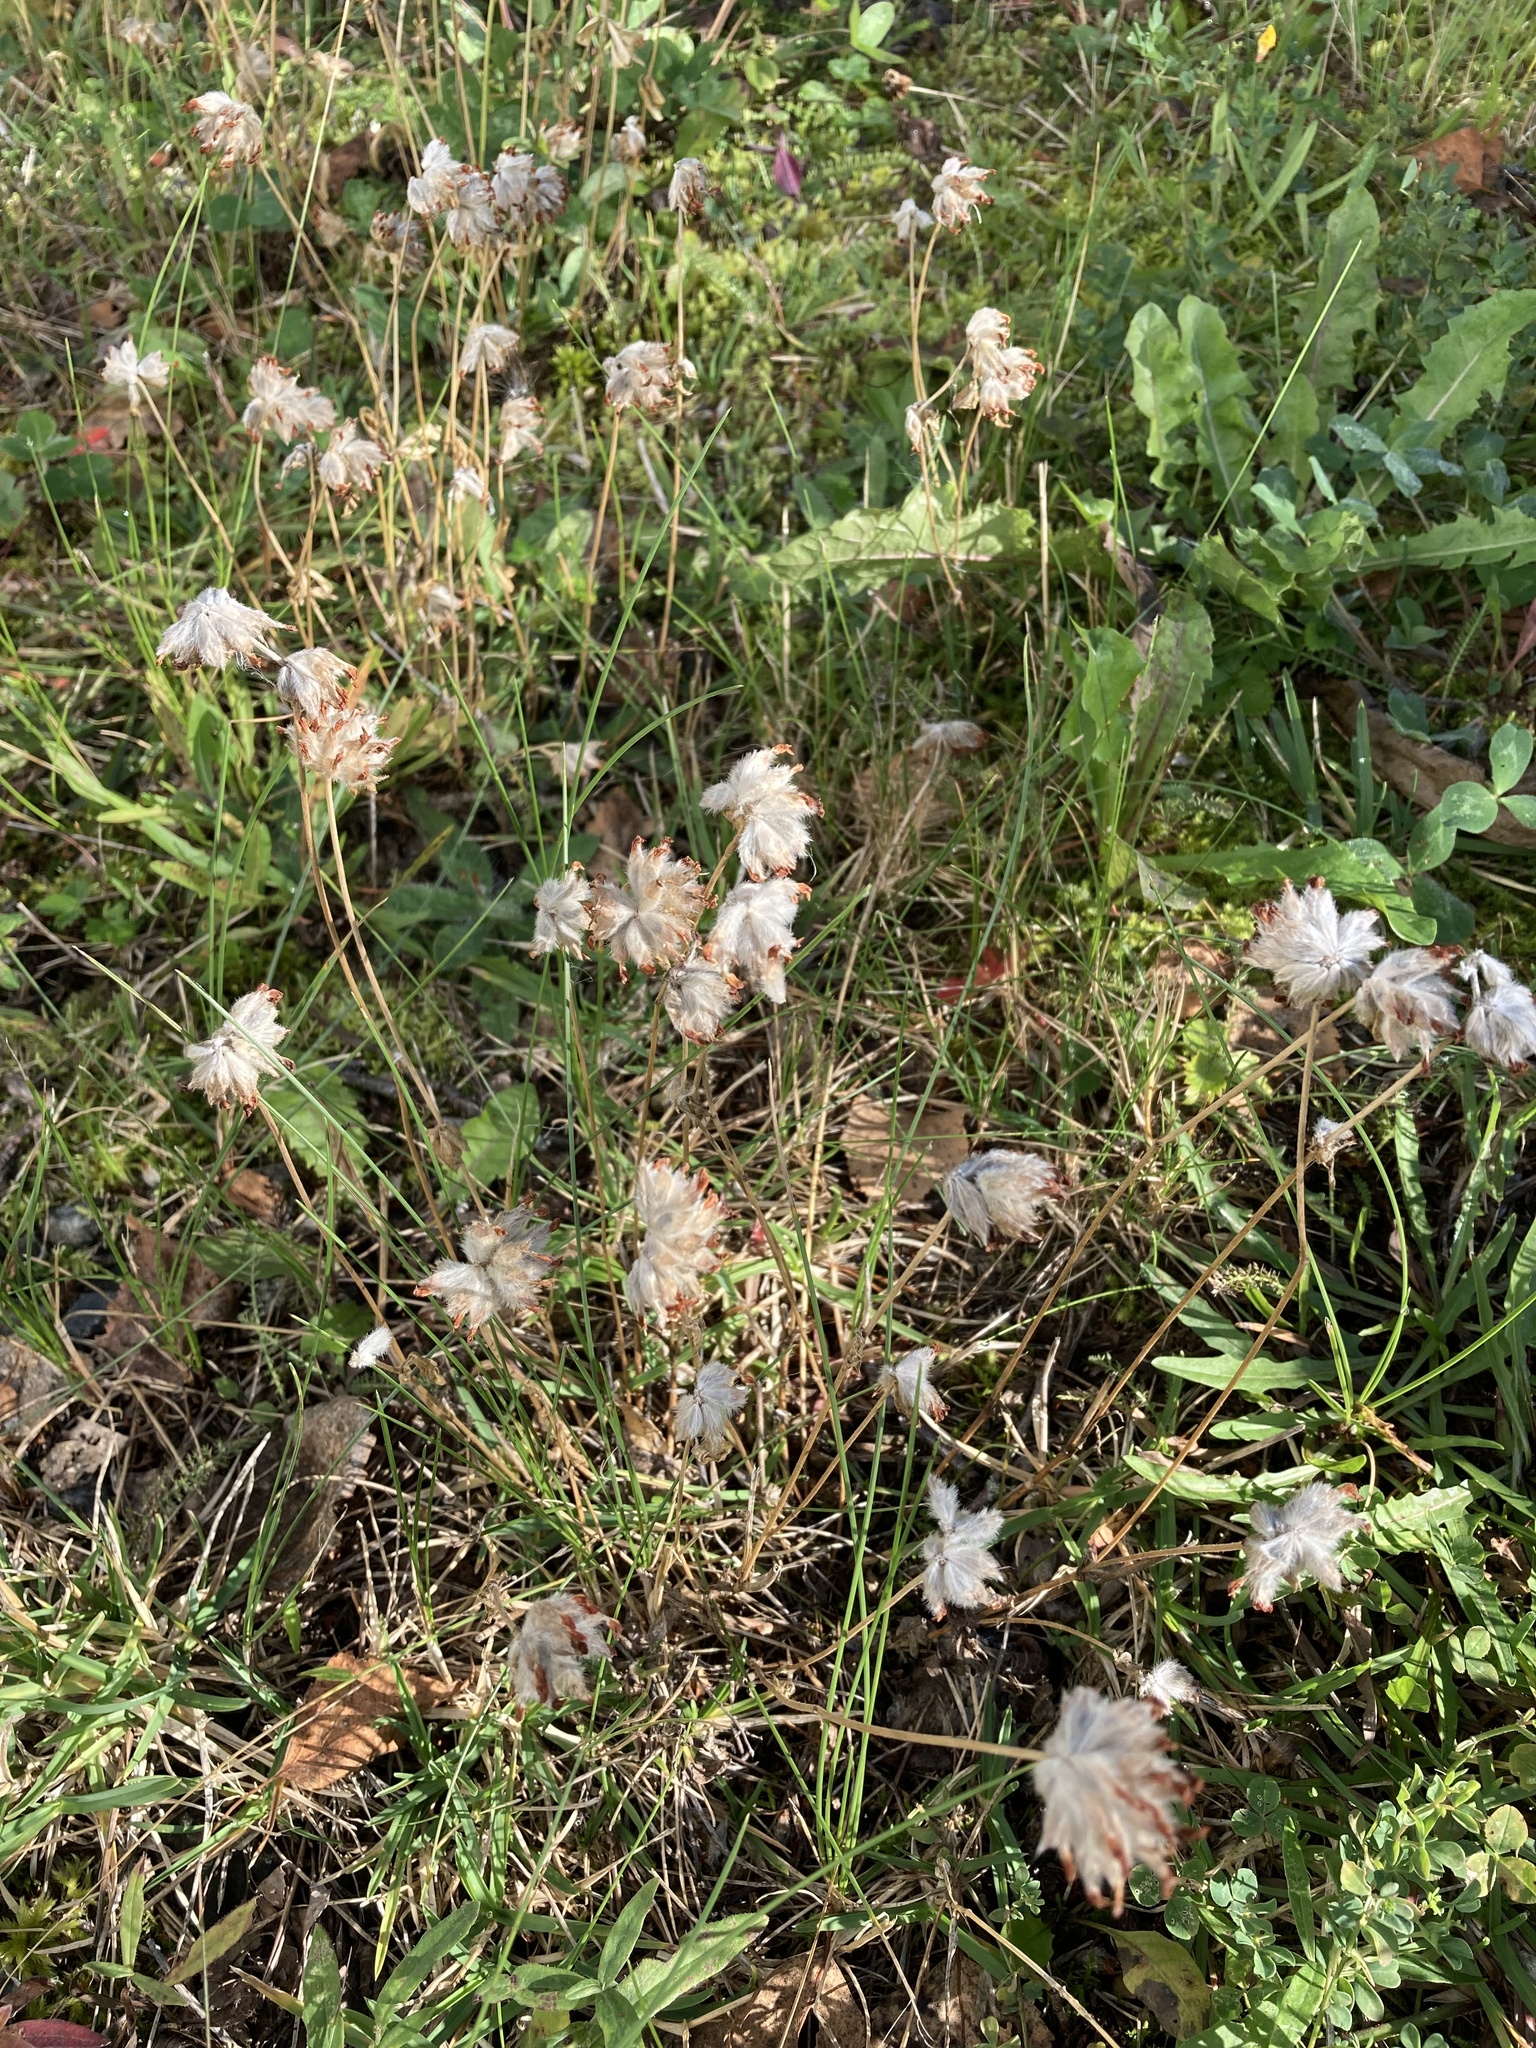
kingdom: Plantae
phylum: Tracheophyta
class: Magnoliopsida
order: Fabales
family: Fabaceae
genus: Anthyllis
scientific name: Anthyllis vulneraria
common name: Kidney vetch
